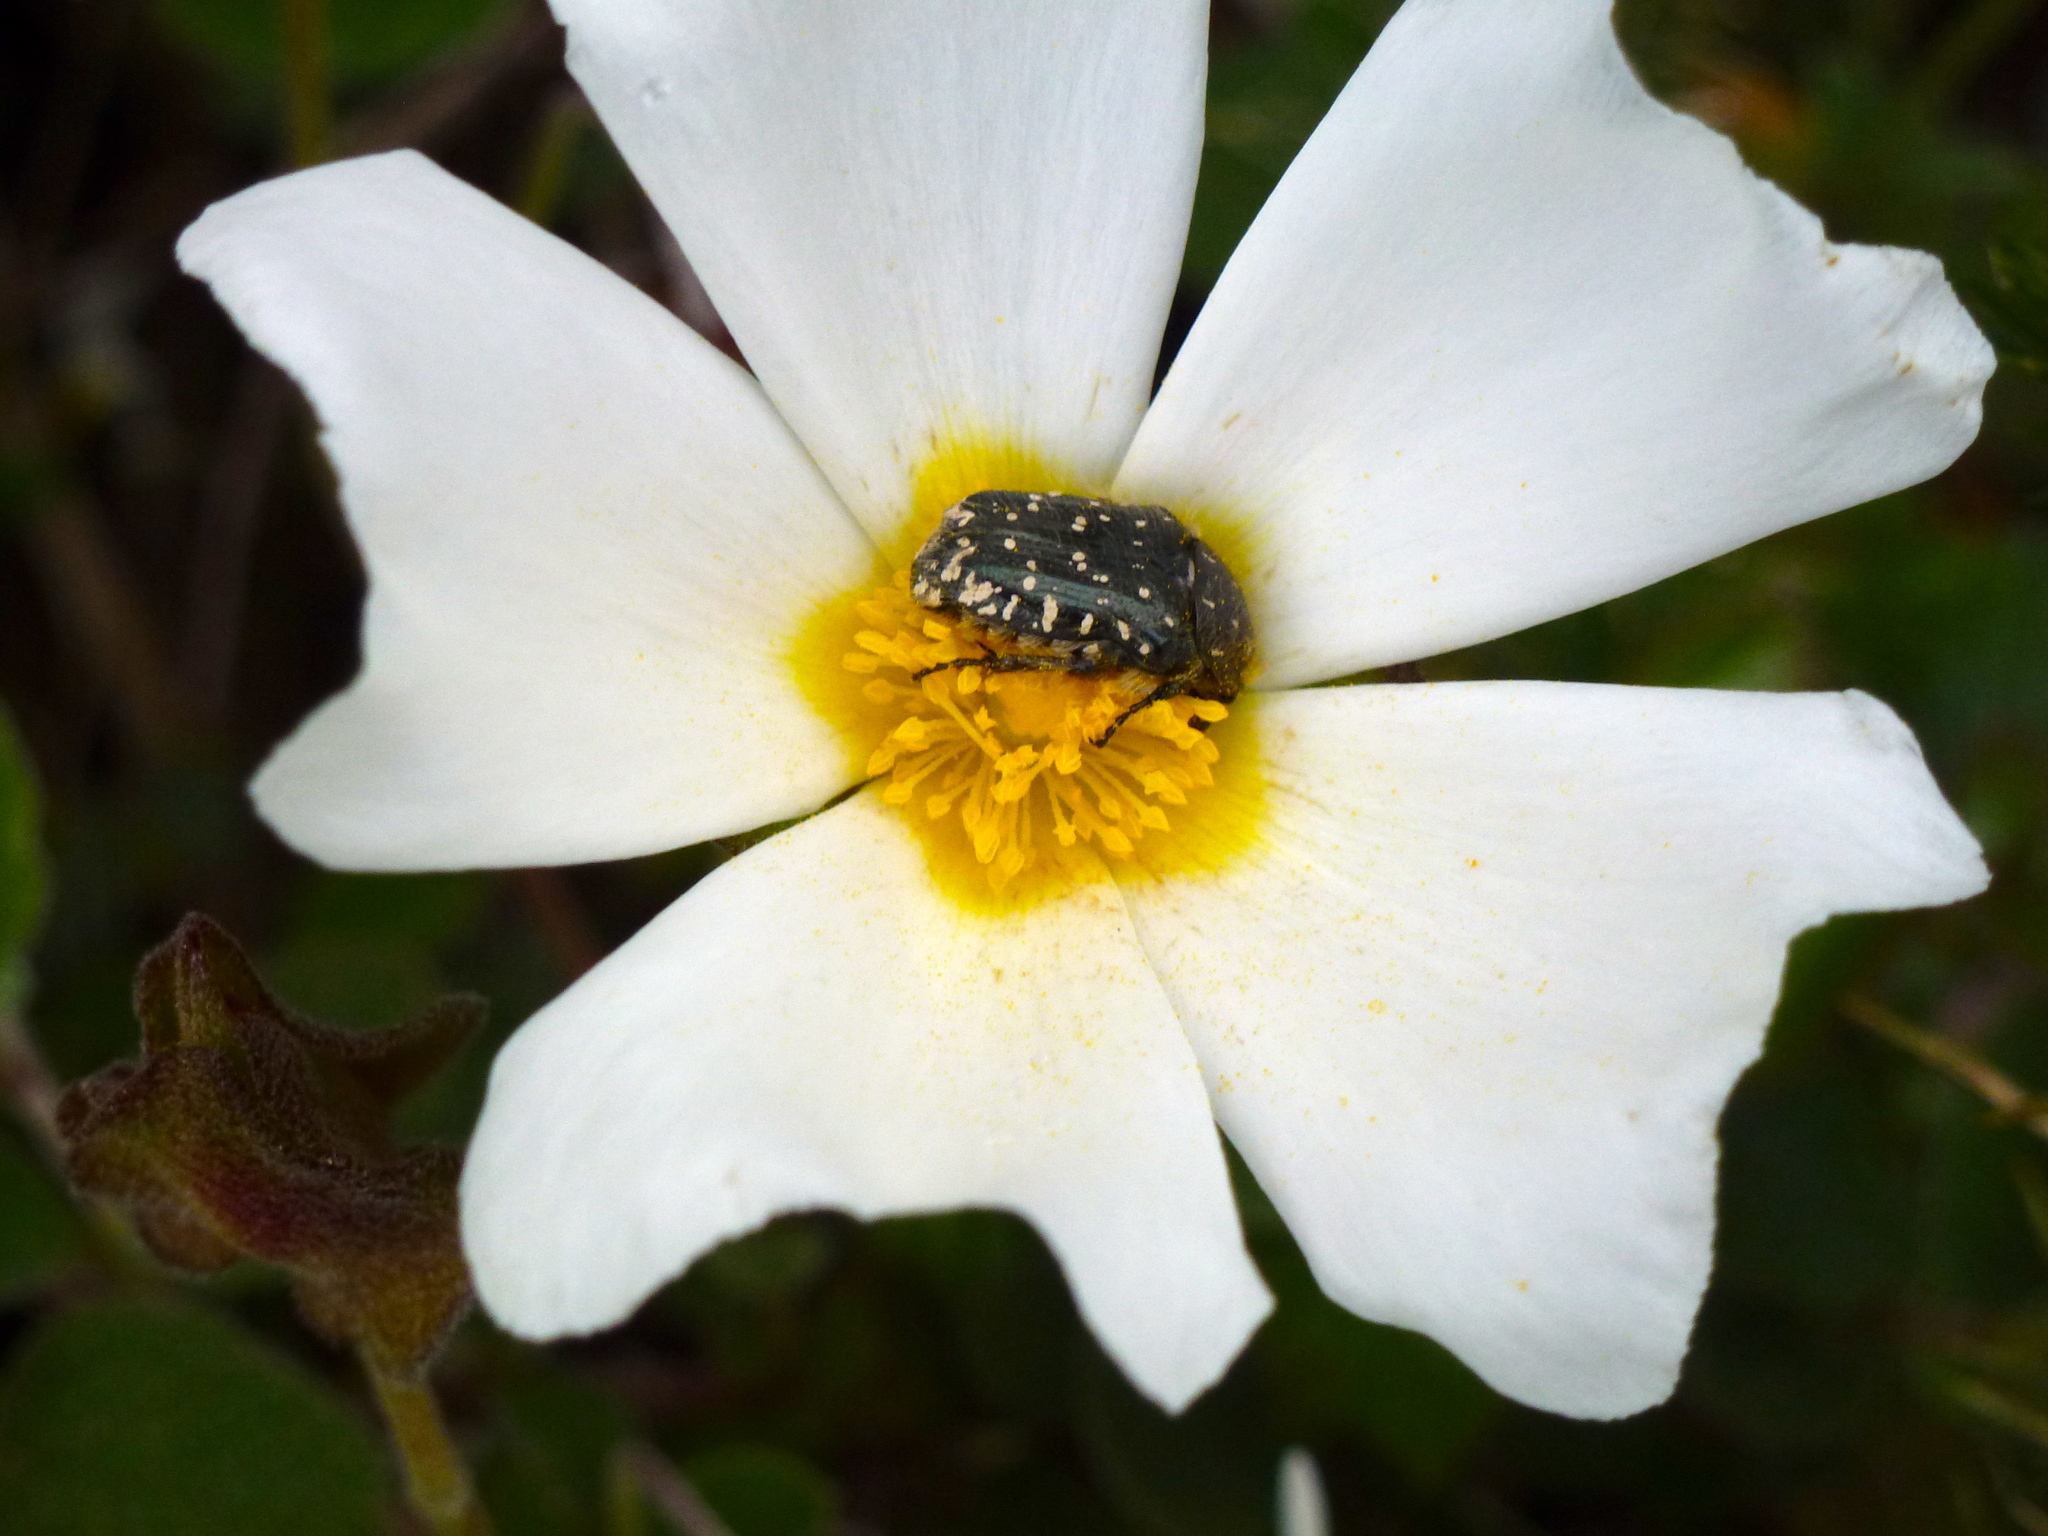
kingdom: Plantae
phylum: Tracheophyta
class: Magnoliopsida
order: Malvales
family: Cistaceae
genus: Cistus
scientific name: Cistus salviifolius
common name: Salvia cistus
